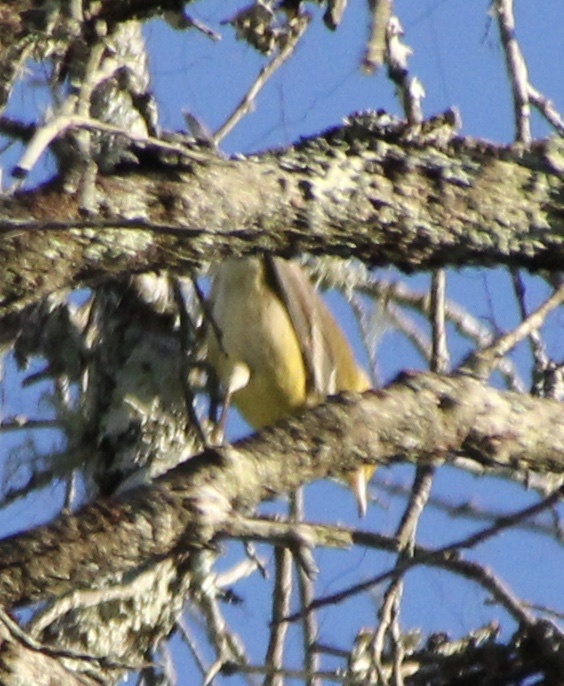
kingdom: Animalia
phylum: Chordata
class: Aves
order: Passeriformes
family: Parulidae
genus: Setophaga
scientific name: Setophaga pinus
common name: Pine warbler
